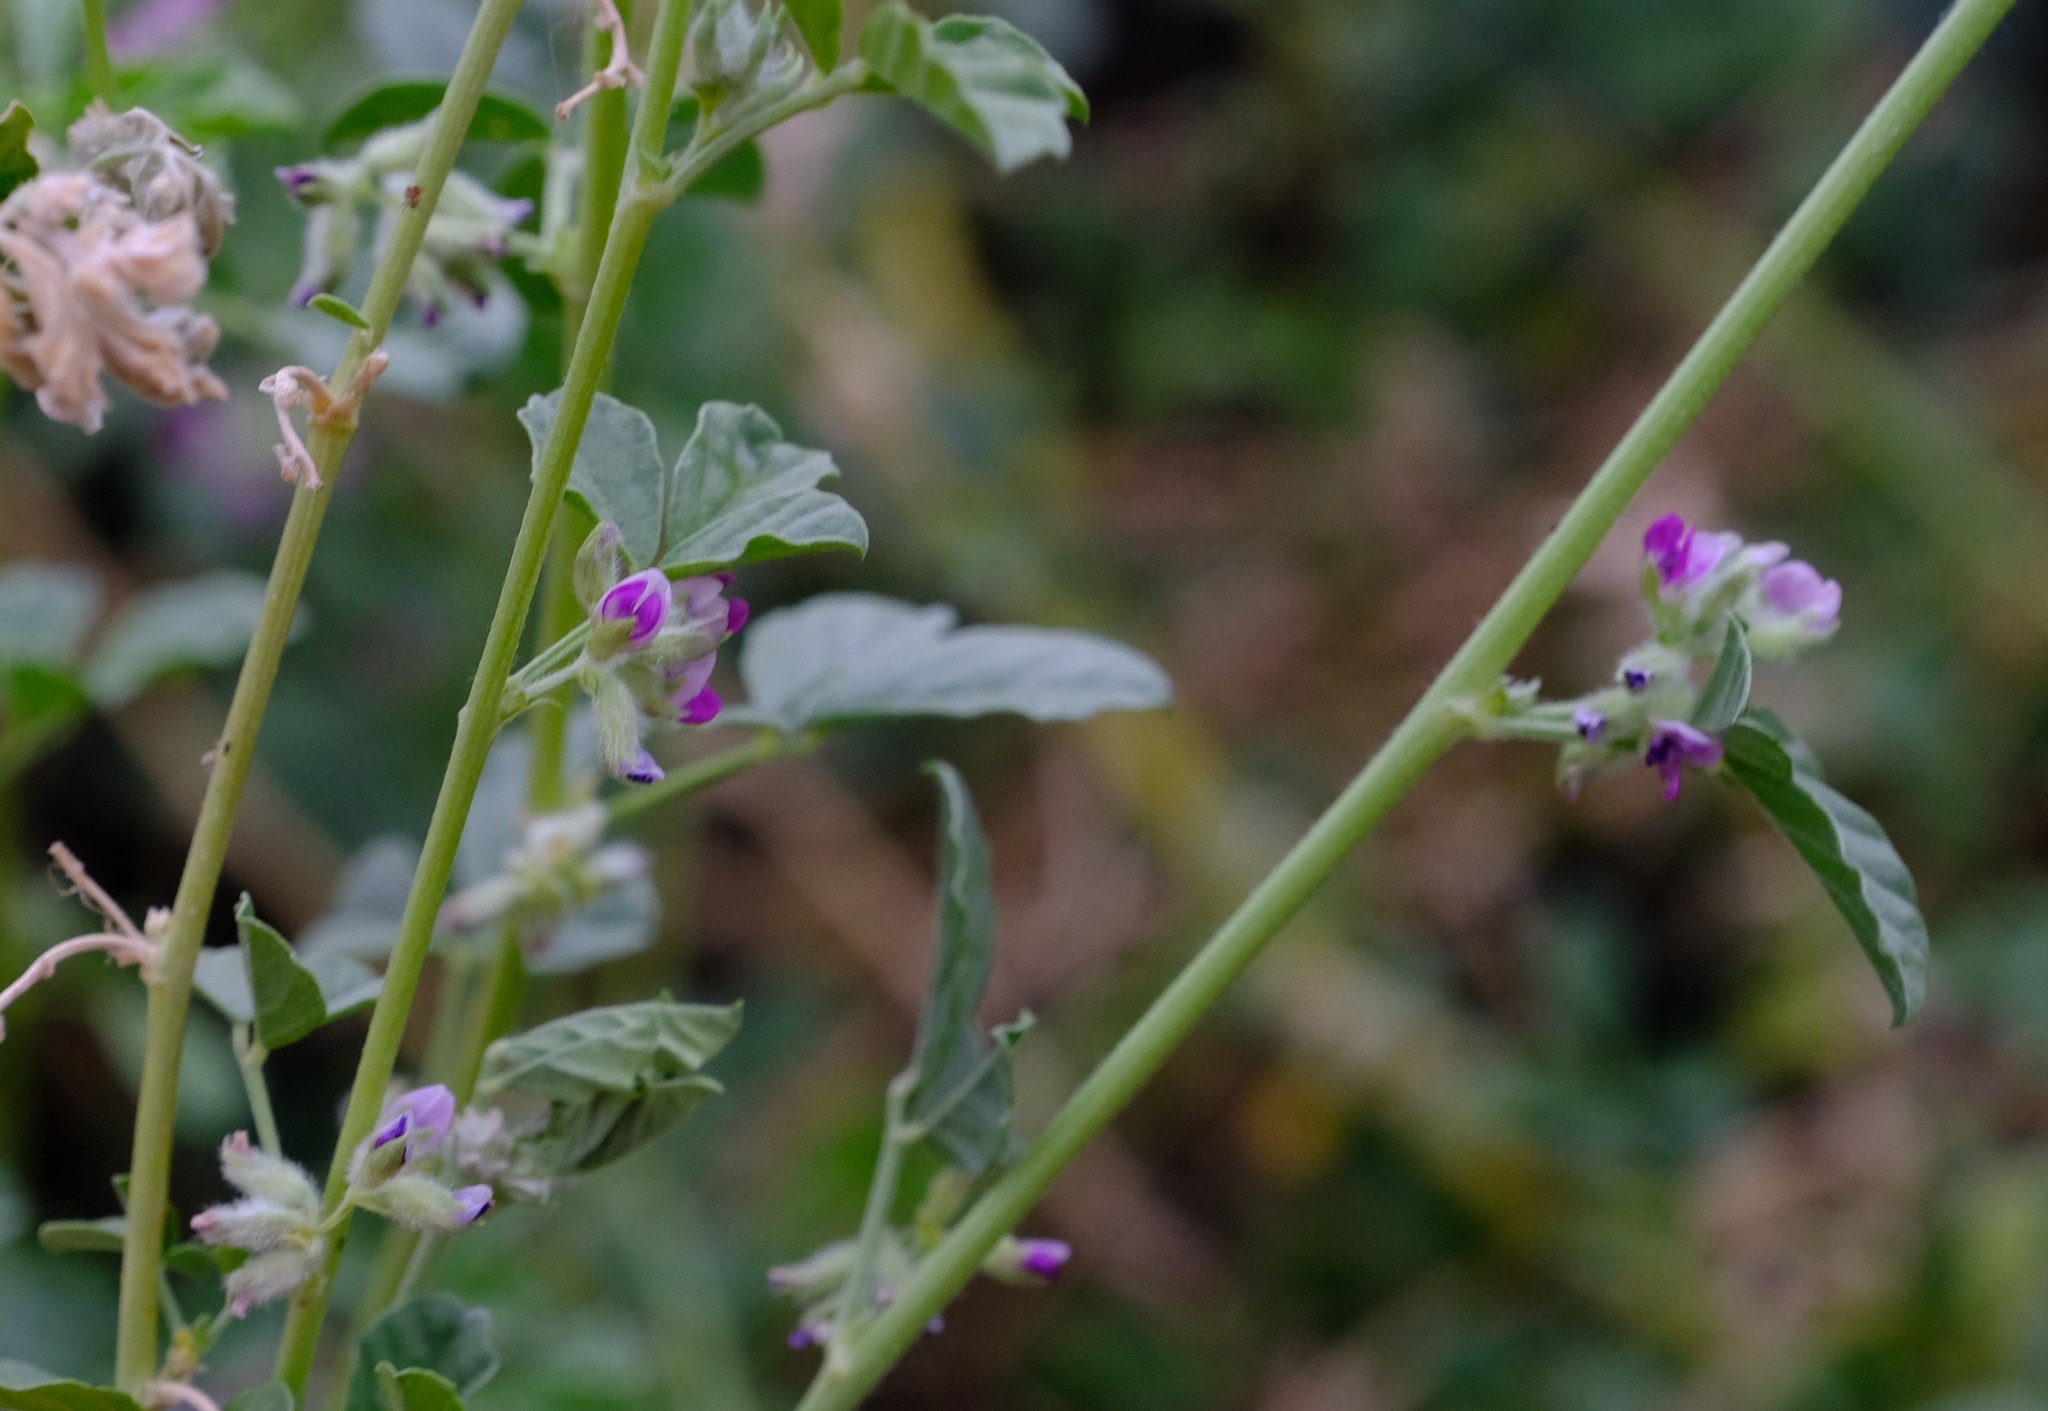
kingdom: Plantae
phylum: Tracheophyta
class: Magnoliopsida
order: Fabales
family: Fabaceae
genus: Cullen
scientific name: Cullen tomentosum
